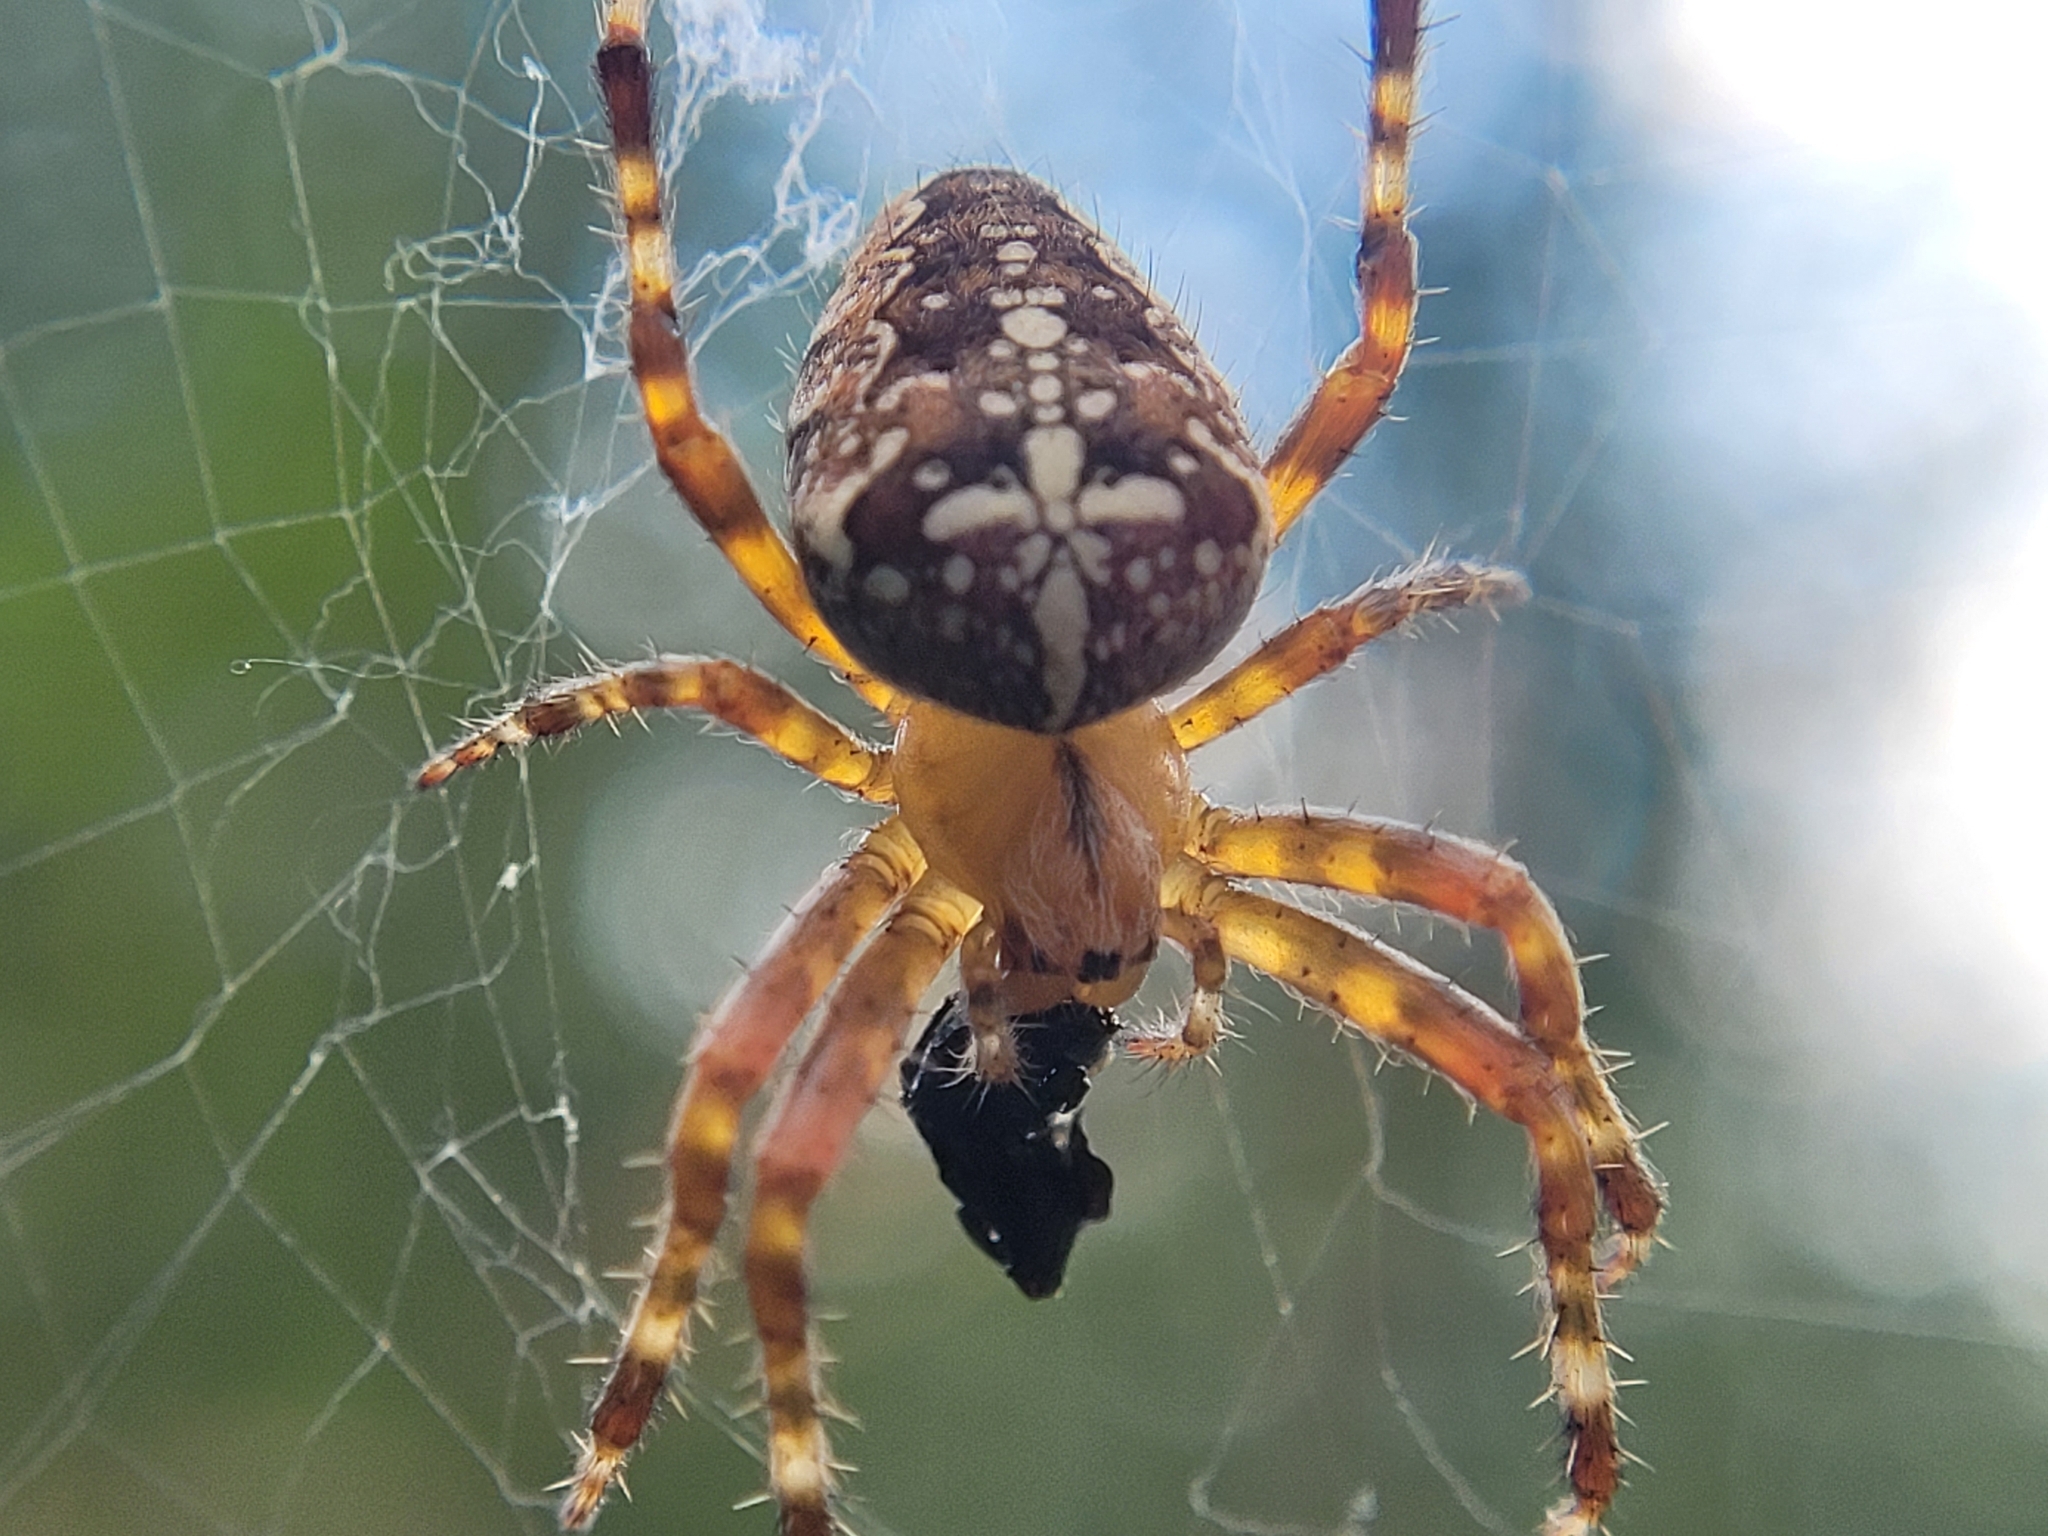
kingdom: Animalia
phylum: Arthropoda
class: Arachnida
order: Araneae
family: Araneidae
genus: Araneus
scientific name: Araneus diadematus
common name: Cross orbweaver
